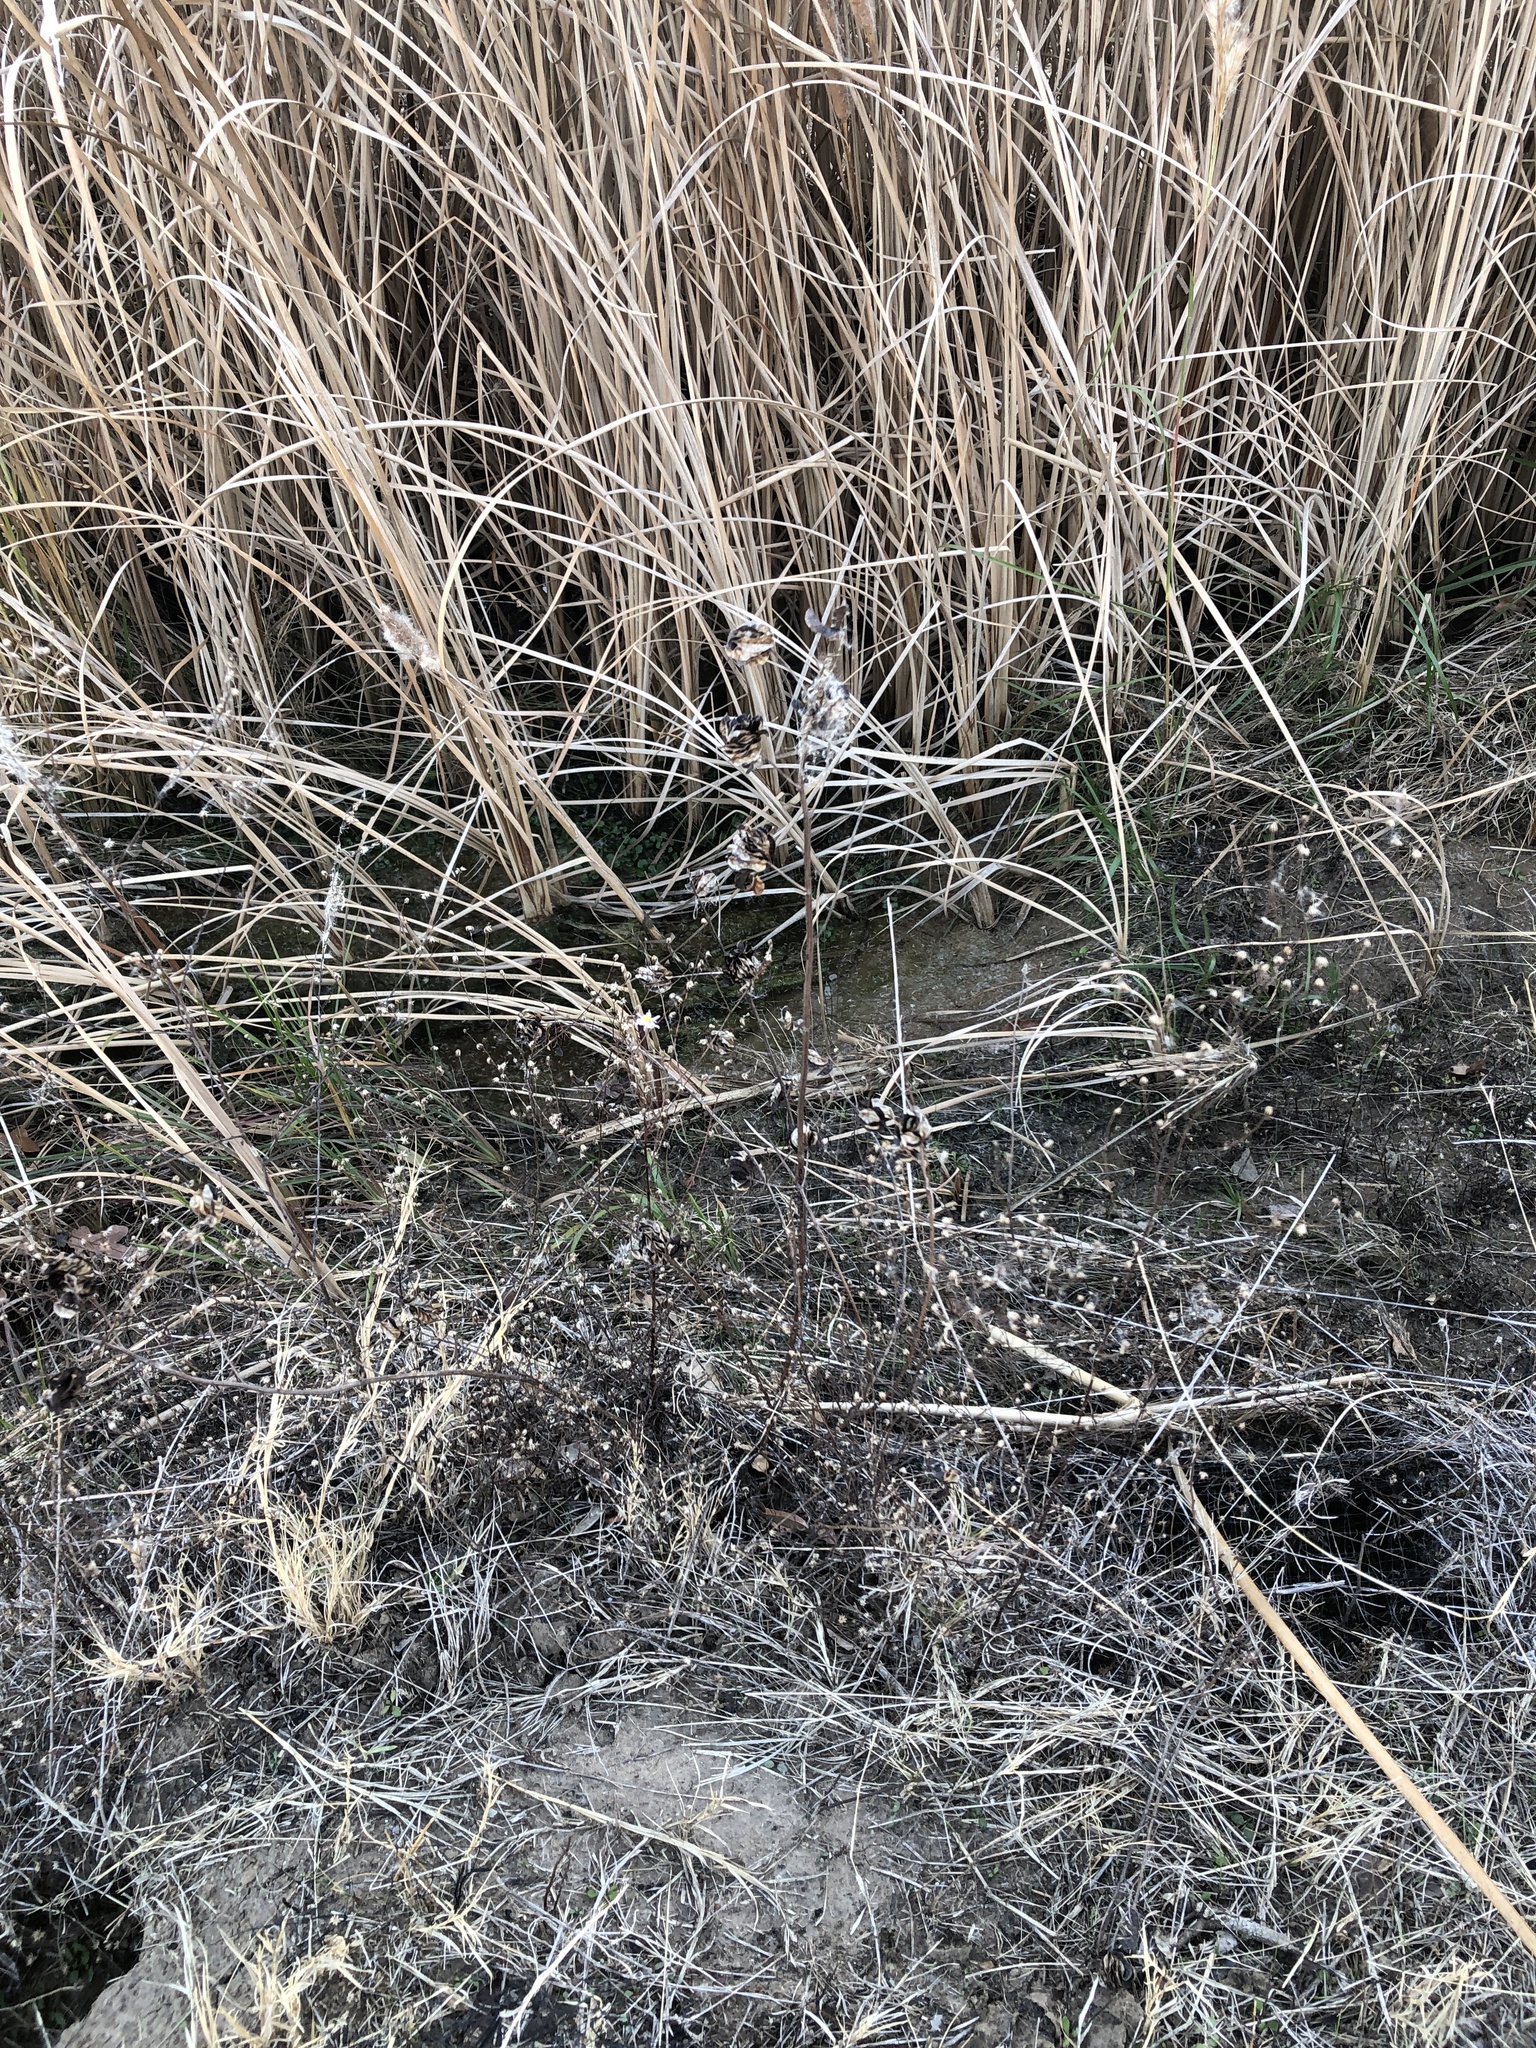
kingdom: Plantae
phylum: Tracheophyta
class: Magnoliopsida
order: Fabales
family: Fabaceae
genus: Desmanthus
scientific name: Desmanthus illinoensis
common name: Illinois bundle-flower
